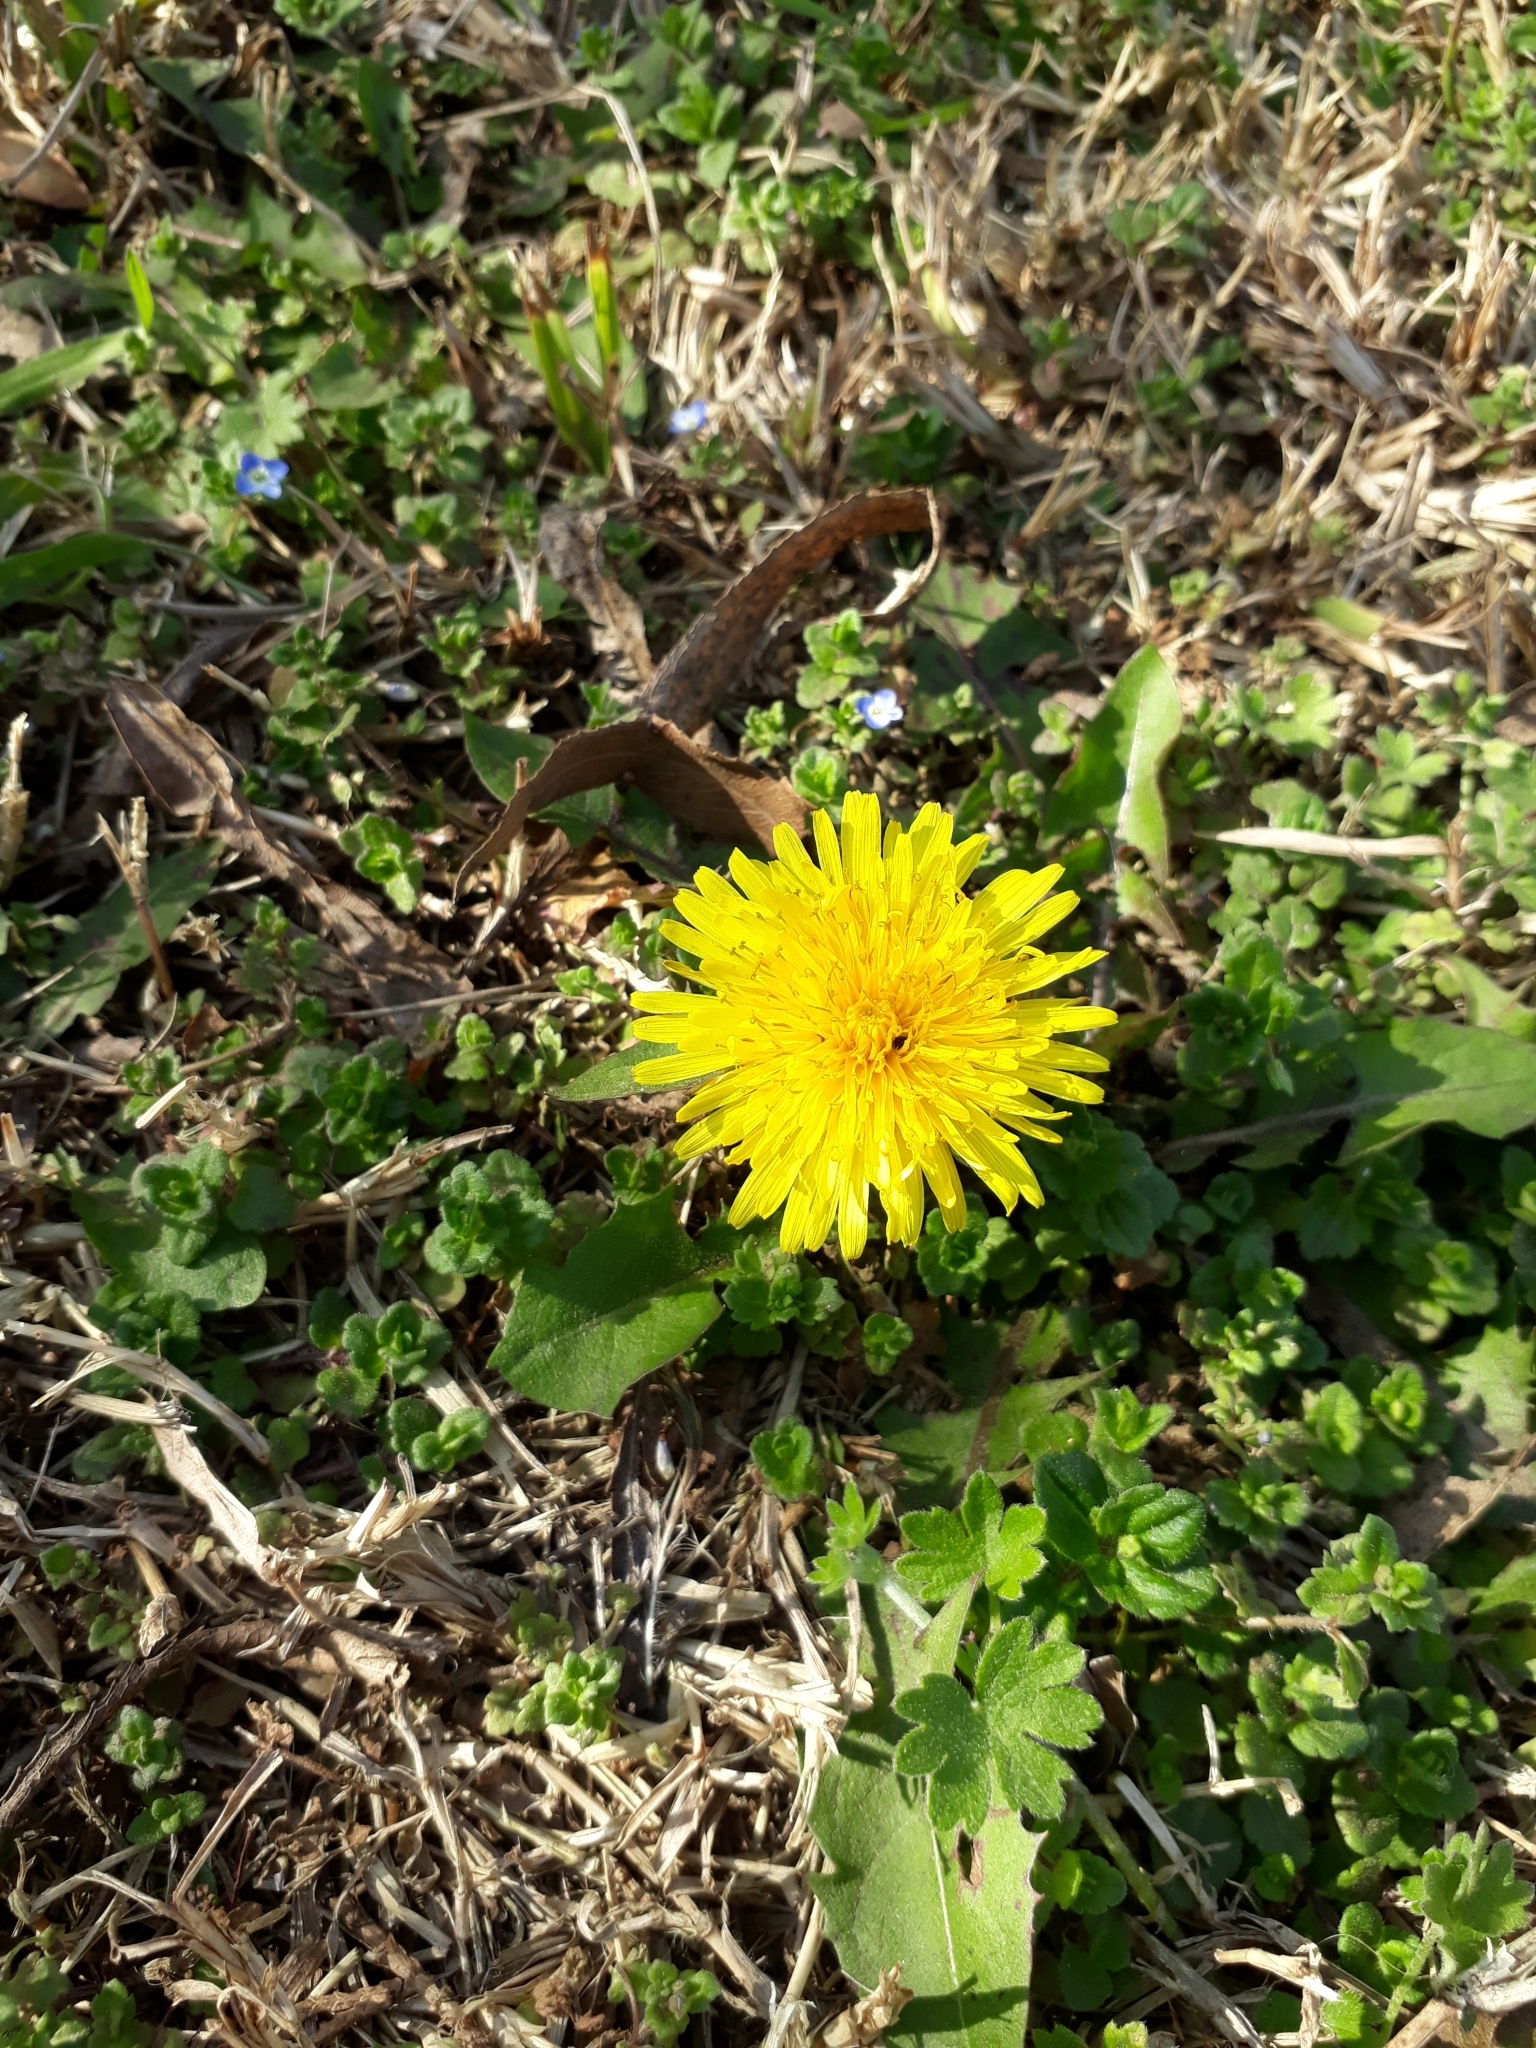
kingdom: Plantae
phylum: Tracheophyta
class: Magnoliopsida
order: Asterales
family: Asteraceae
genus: Taraxacum
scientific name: Taraxacum officinale
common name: Common dandelion
